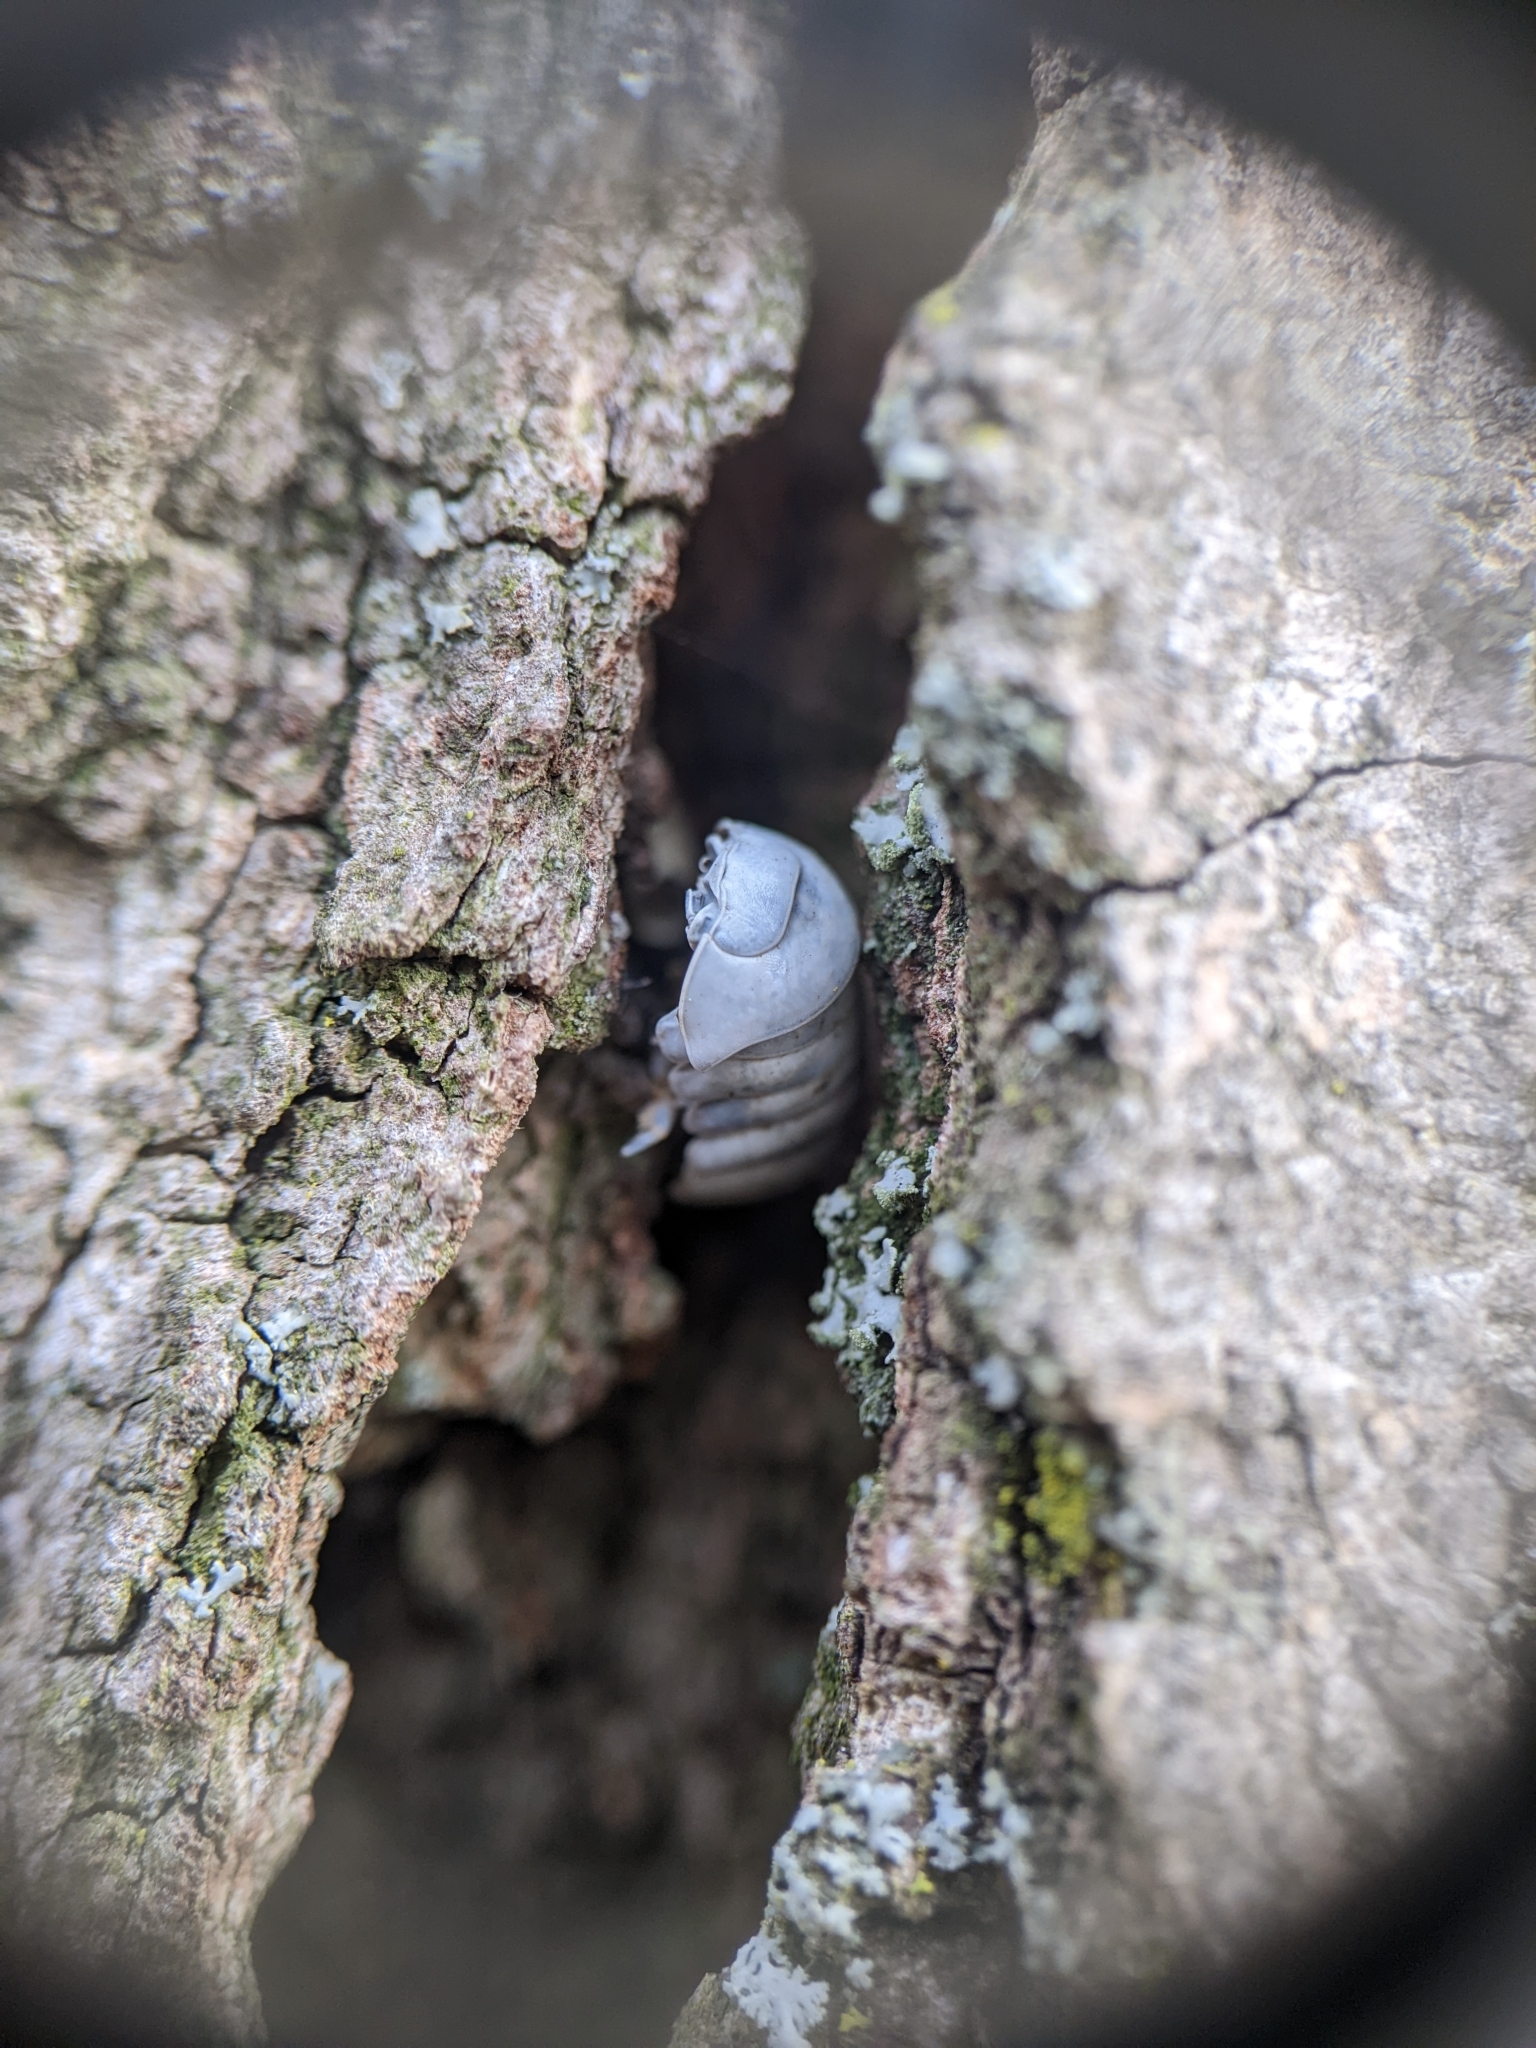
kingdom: Animalia
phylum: Arthropoda
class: Malacostraca
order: Isopoda
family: Armadillidiidae
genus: Armadillidium
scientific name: Armadillidium vulgare
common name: Common pill woodlouse
